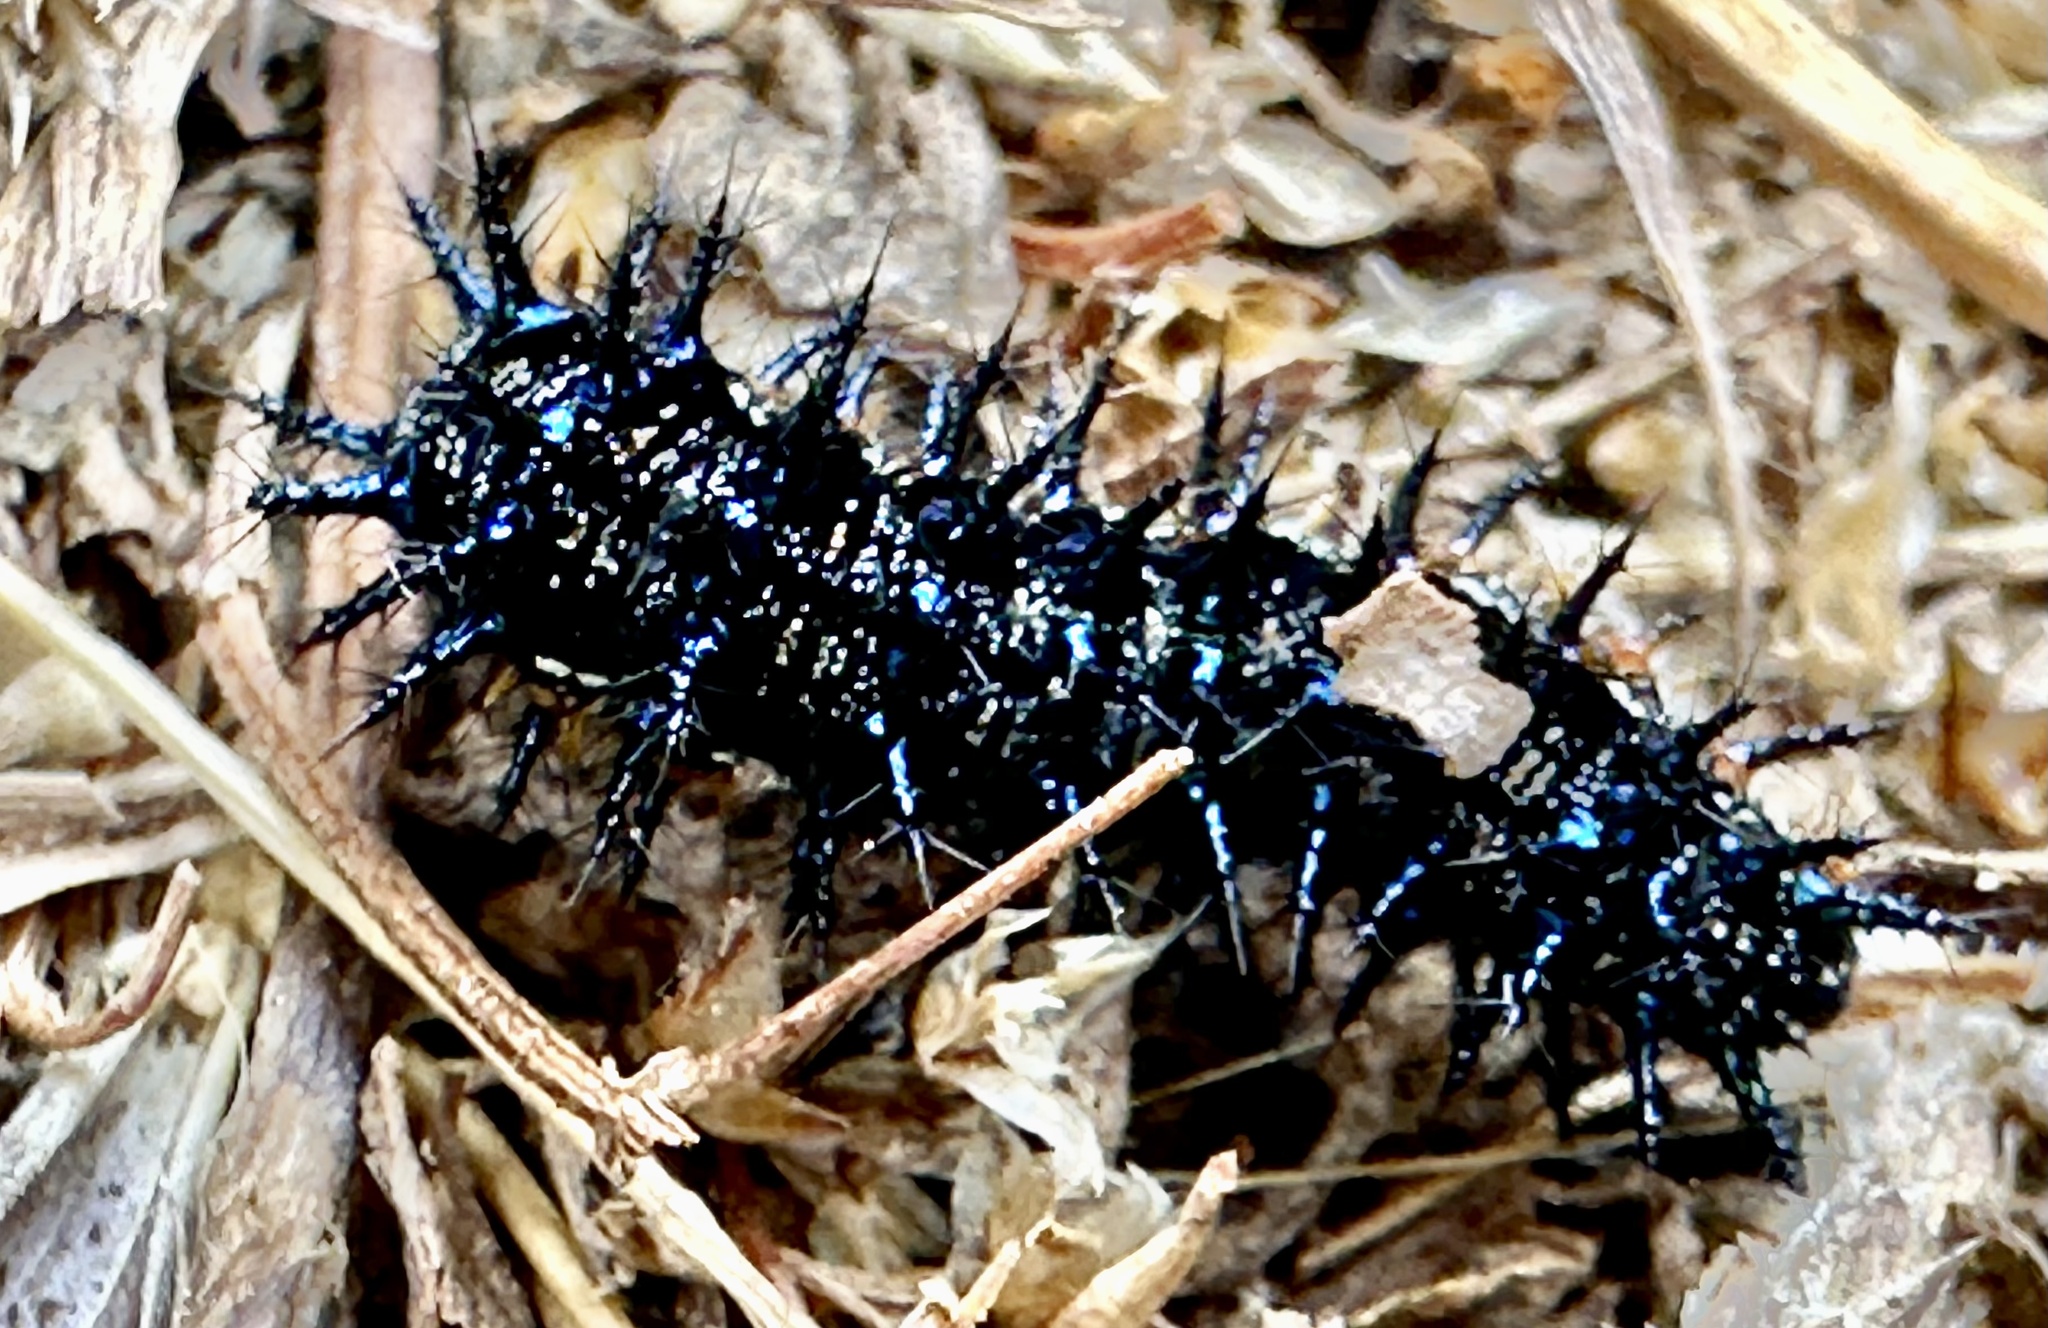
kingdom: Animalia
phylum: Arthropoda
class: Insecta
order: Lepidoptera
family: Nymphalidae
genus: Junonia
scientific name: Junonia grisea
